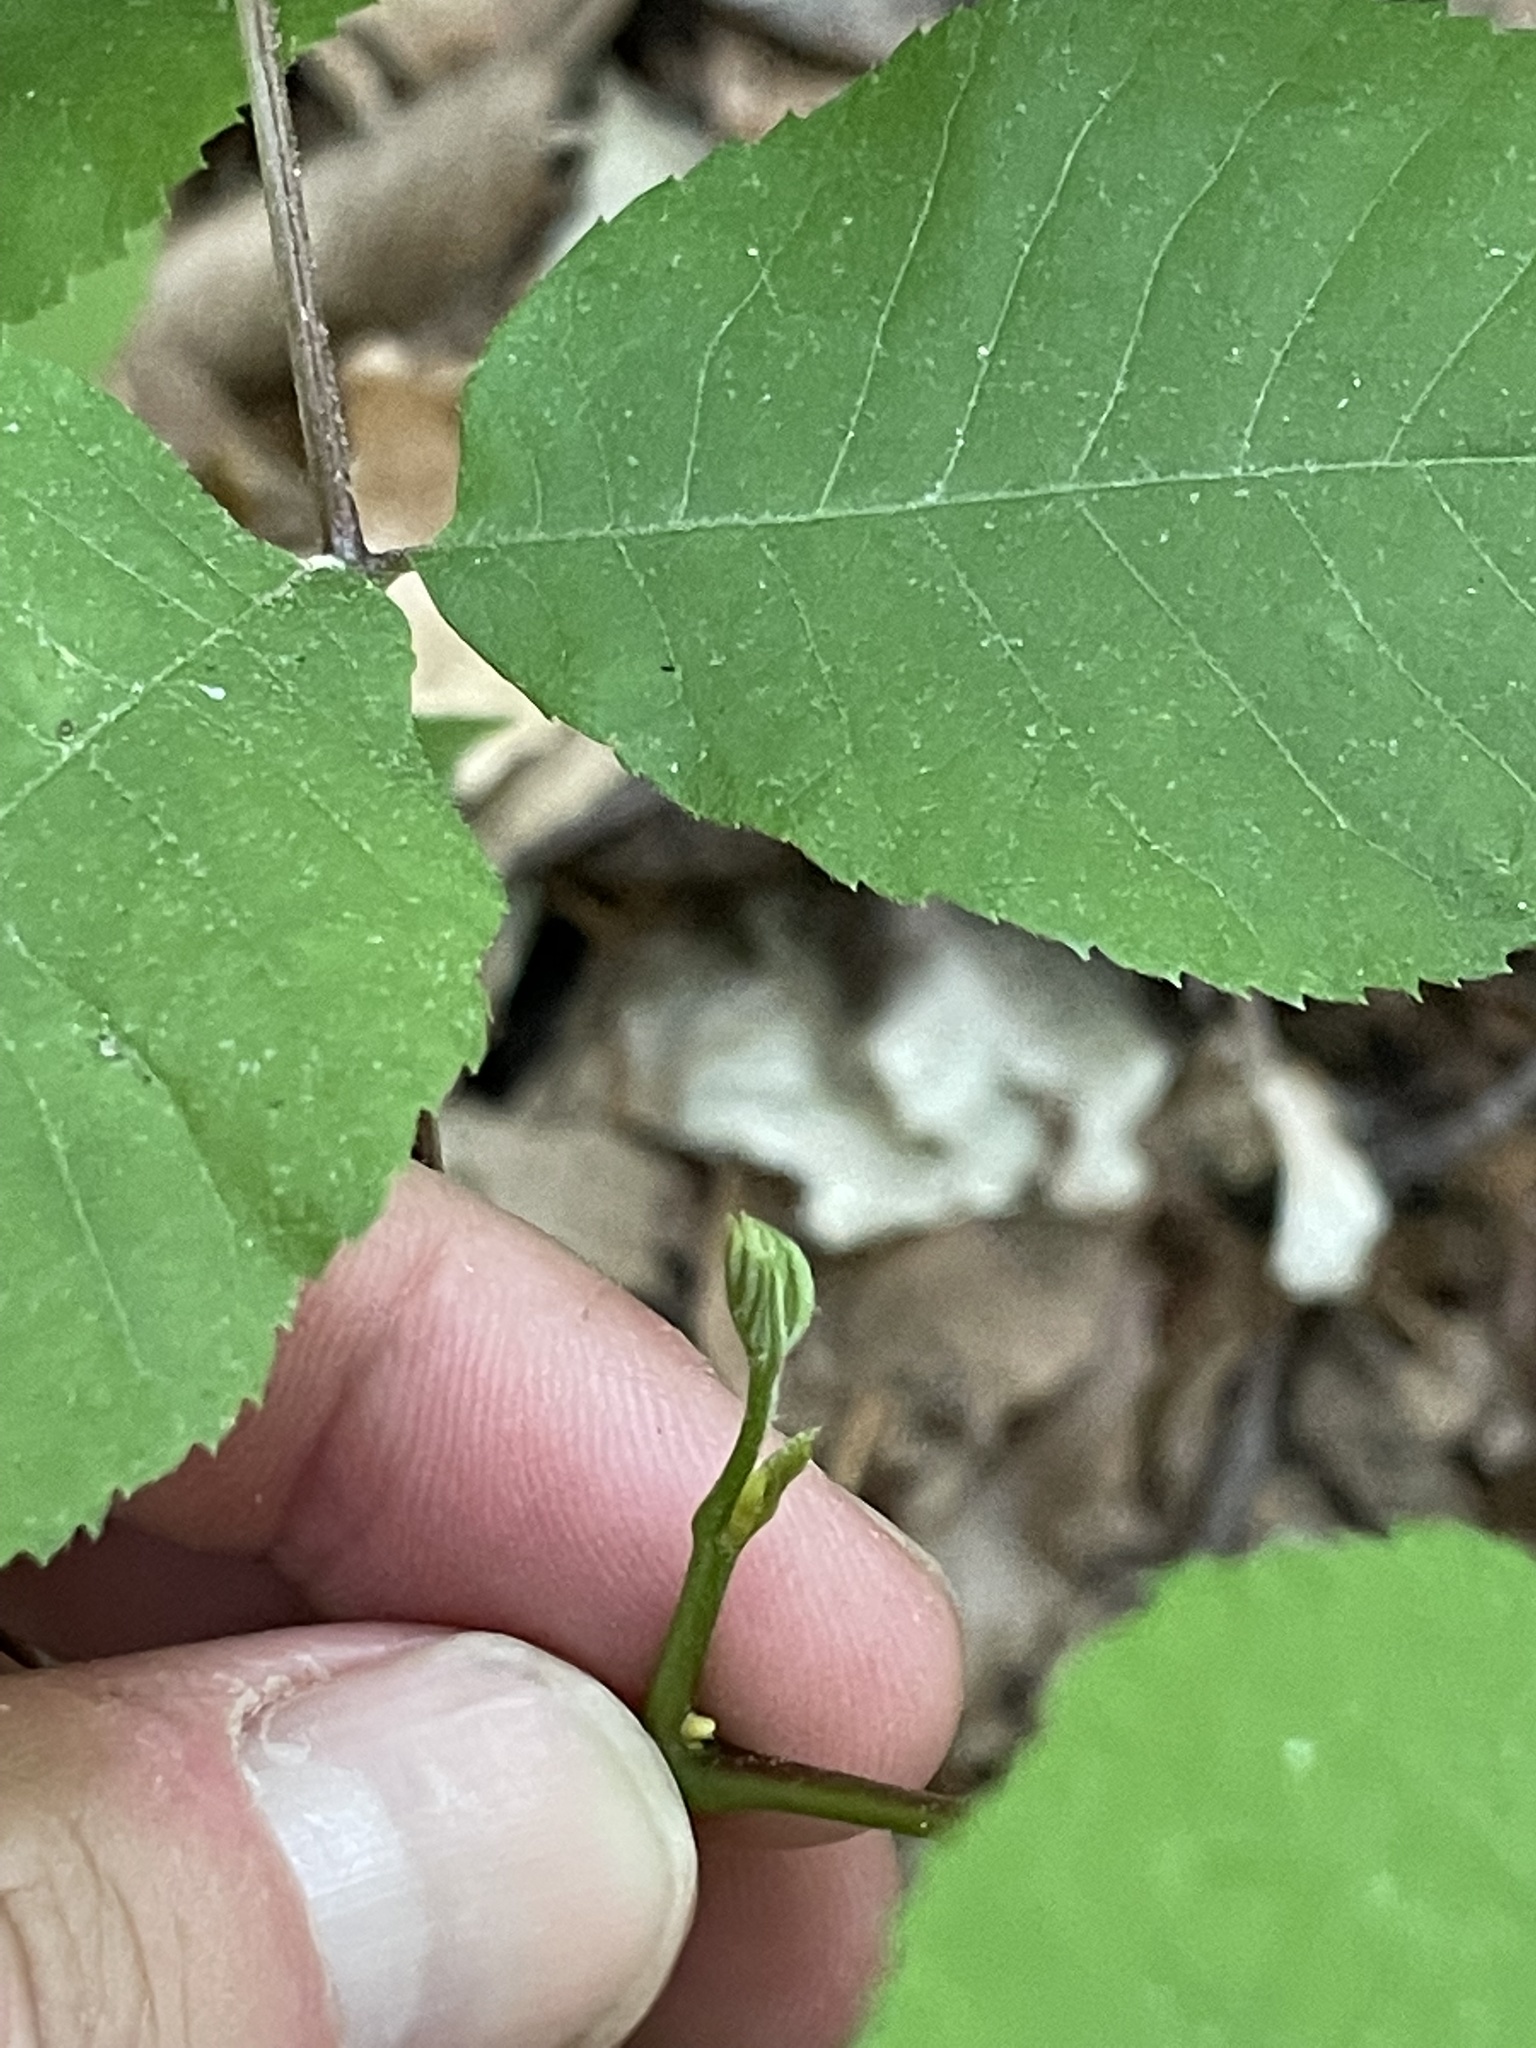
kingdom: Plantae
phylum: Tracheophyta
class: Magnoliopsida
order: Fagales
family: Juglandaceae
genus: Carya
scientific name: Carya cordiformis
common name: Bitternut hickory
